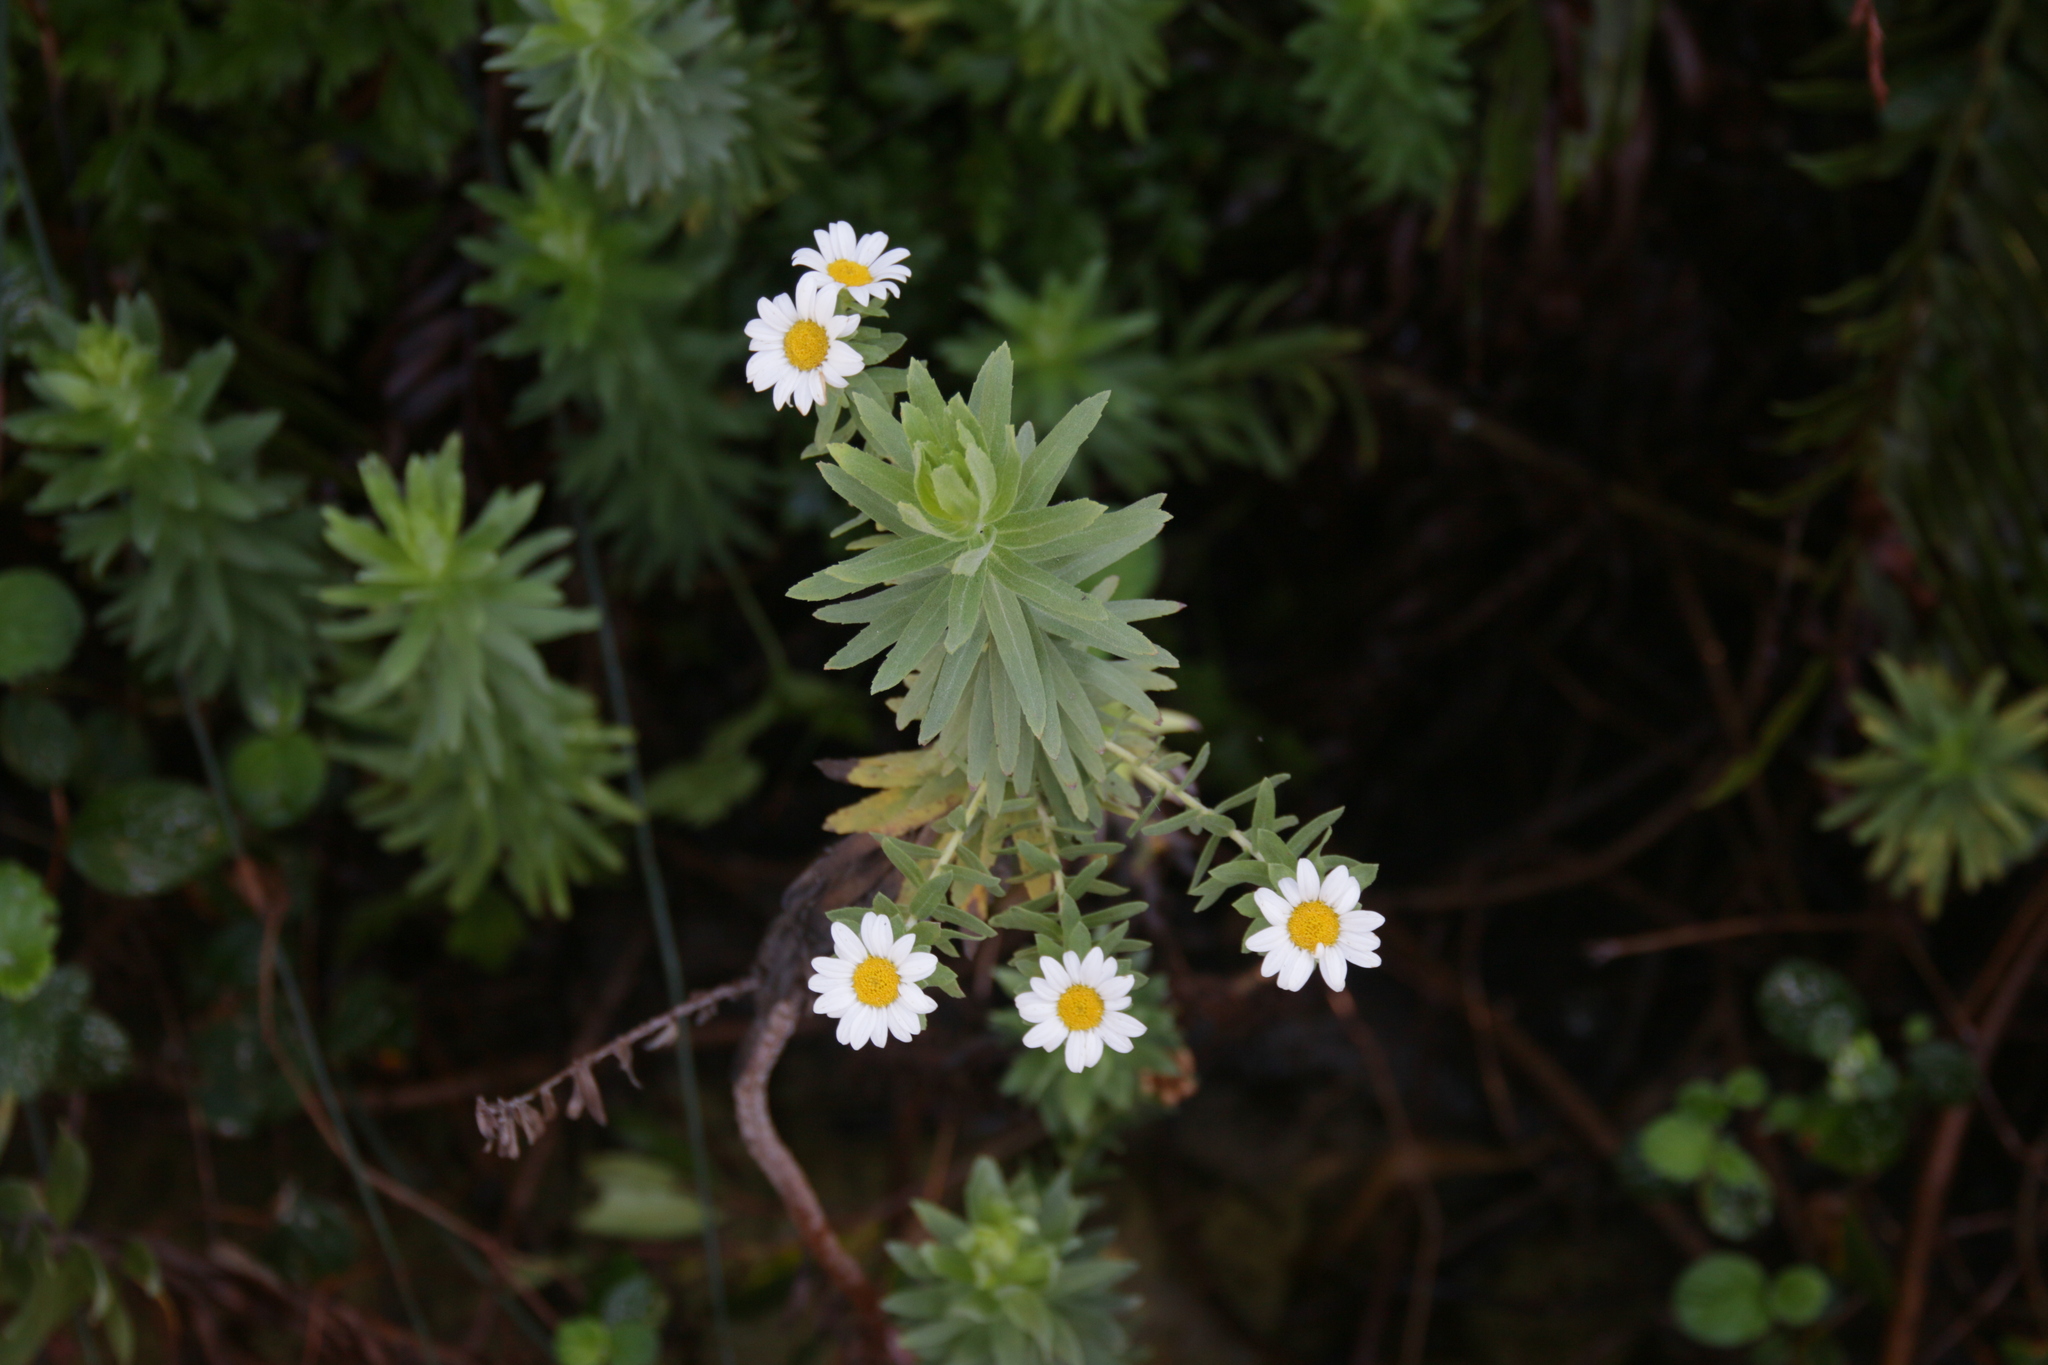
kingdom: Plantae
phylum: Tracheophyta
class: Magnoliopsida
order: Asterales
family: Asteraceae
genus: Osmitopsis
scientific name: Osmitopsis asteriscoides
